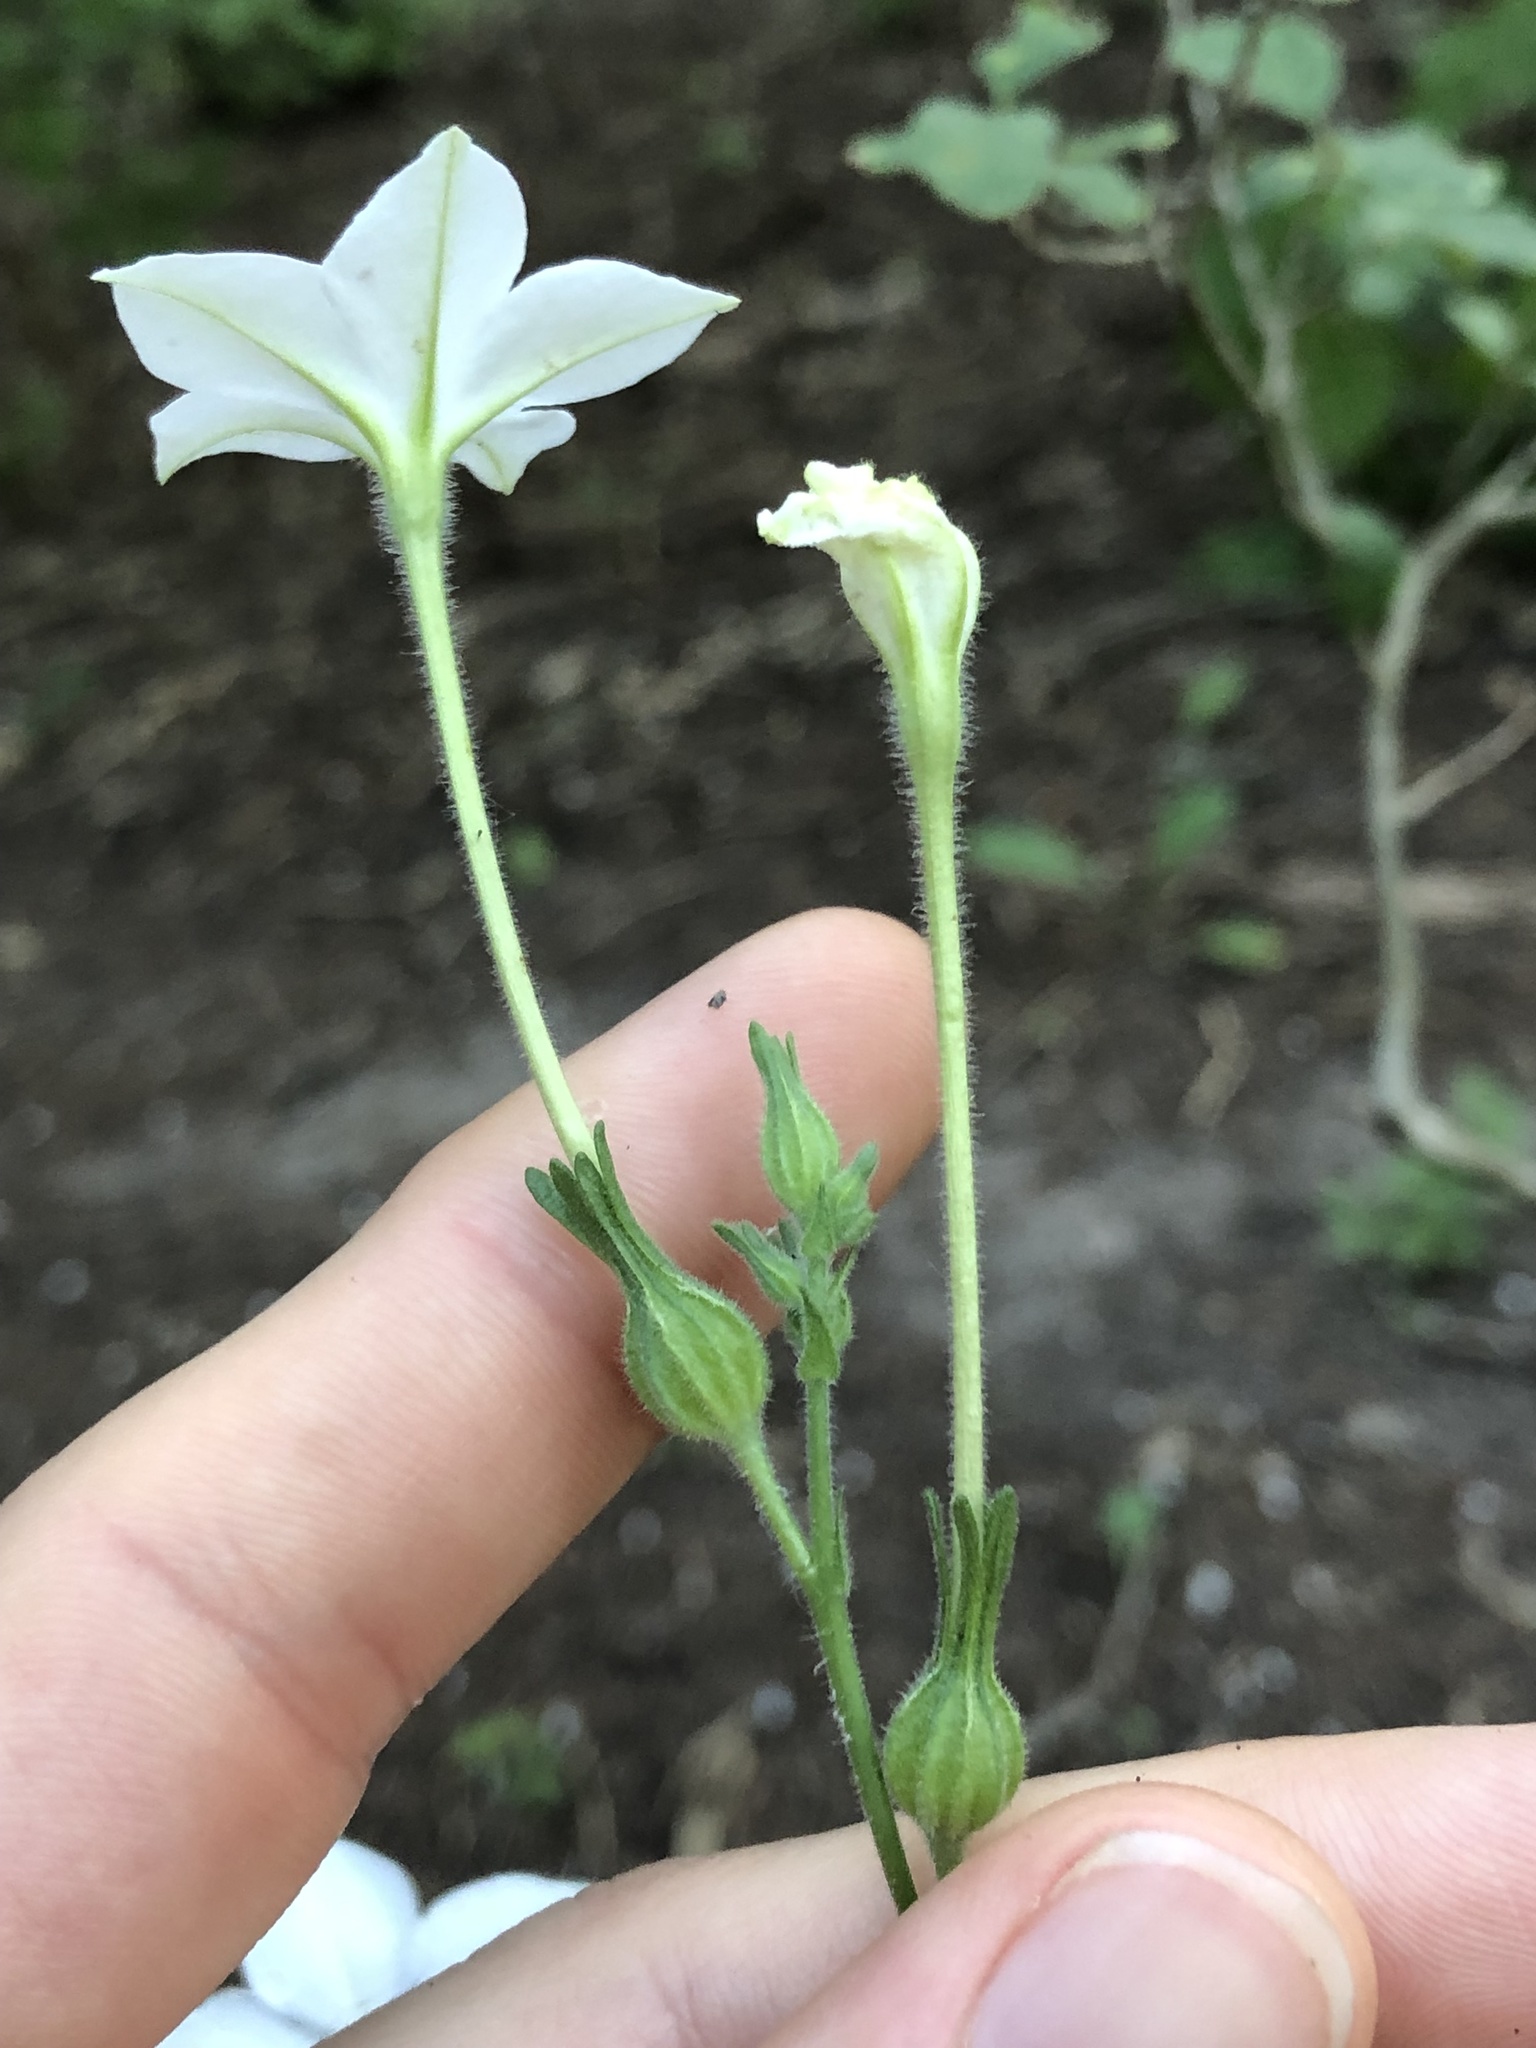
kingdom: Plantae
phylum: Tracheophyta
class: Magnoliopsida
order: Solanales
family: Solanaceae
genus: Nicotiana
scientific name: Nicotiana repanda
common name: Fiddle-leaf tobacco
